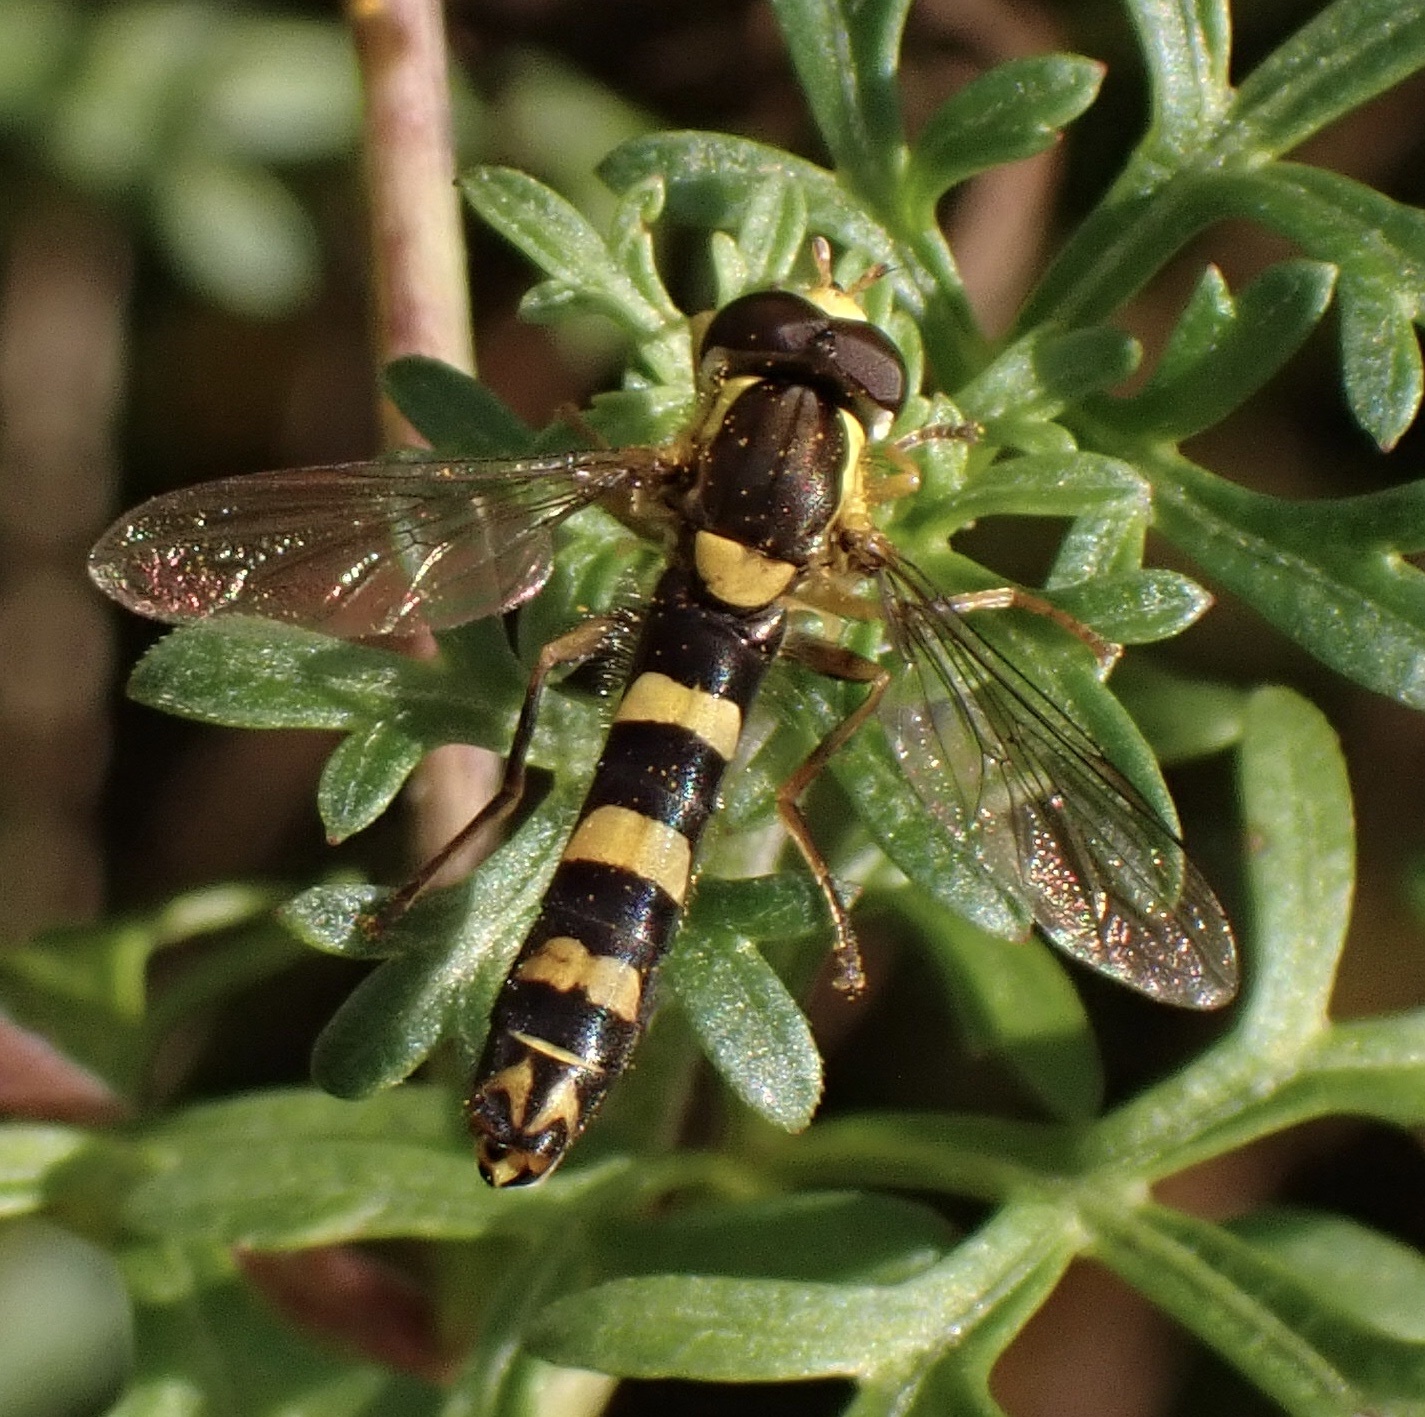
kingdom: Animalia
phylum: Arthropoda
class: Insecta
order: Diptera
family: Syrphidae
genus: Sphaerophoria
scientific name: Sphaerophoria scripta
